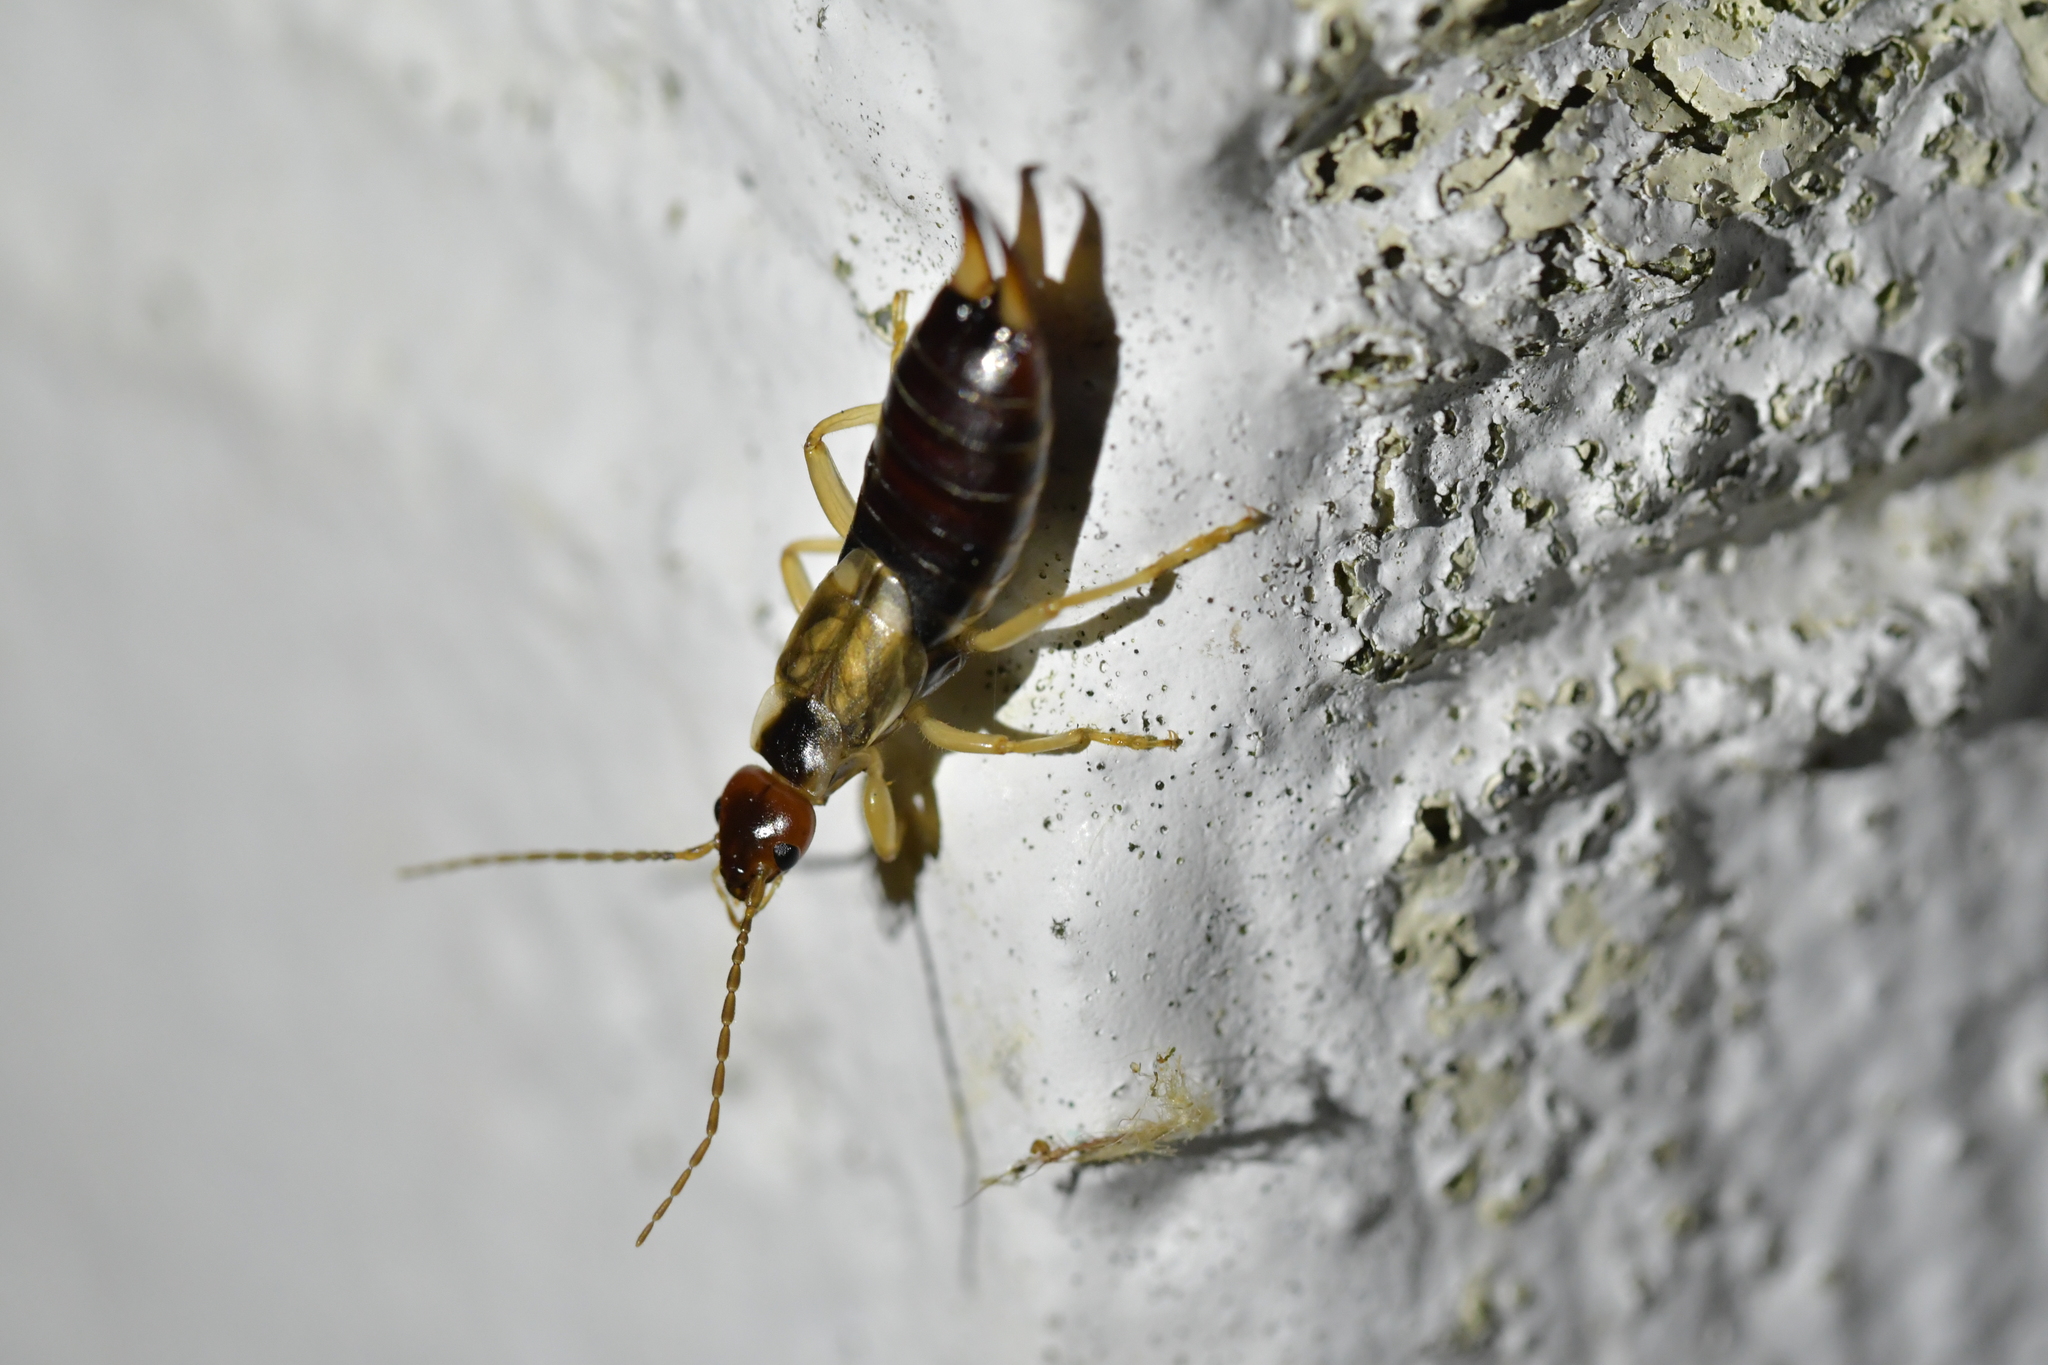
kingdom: Animalia
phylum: Arthropoda
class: Insecta
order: Dermaptera
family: Forficulidae
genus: Forficula
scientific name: Forficula
